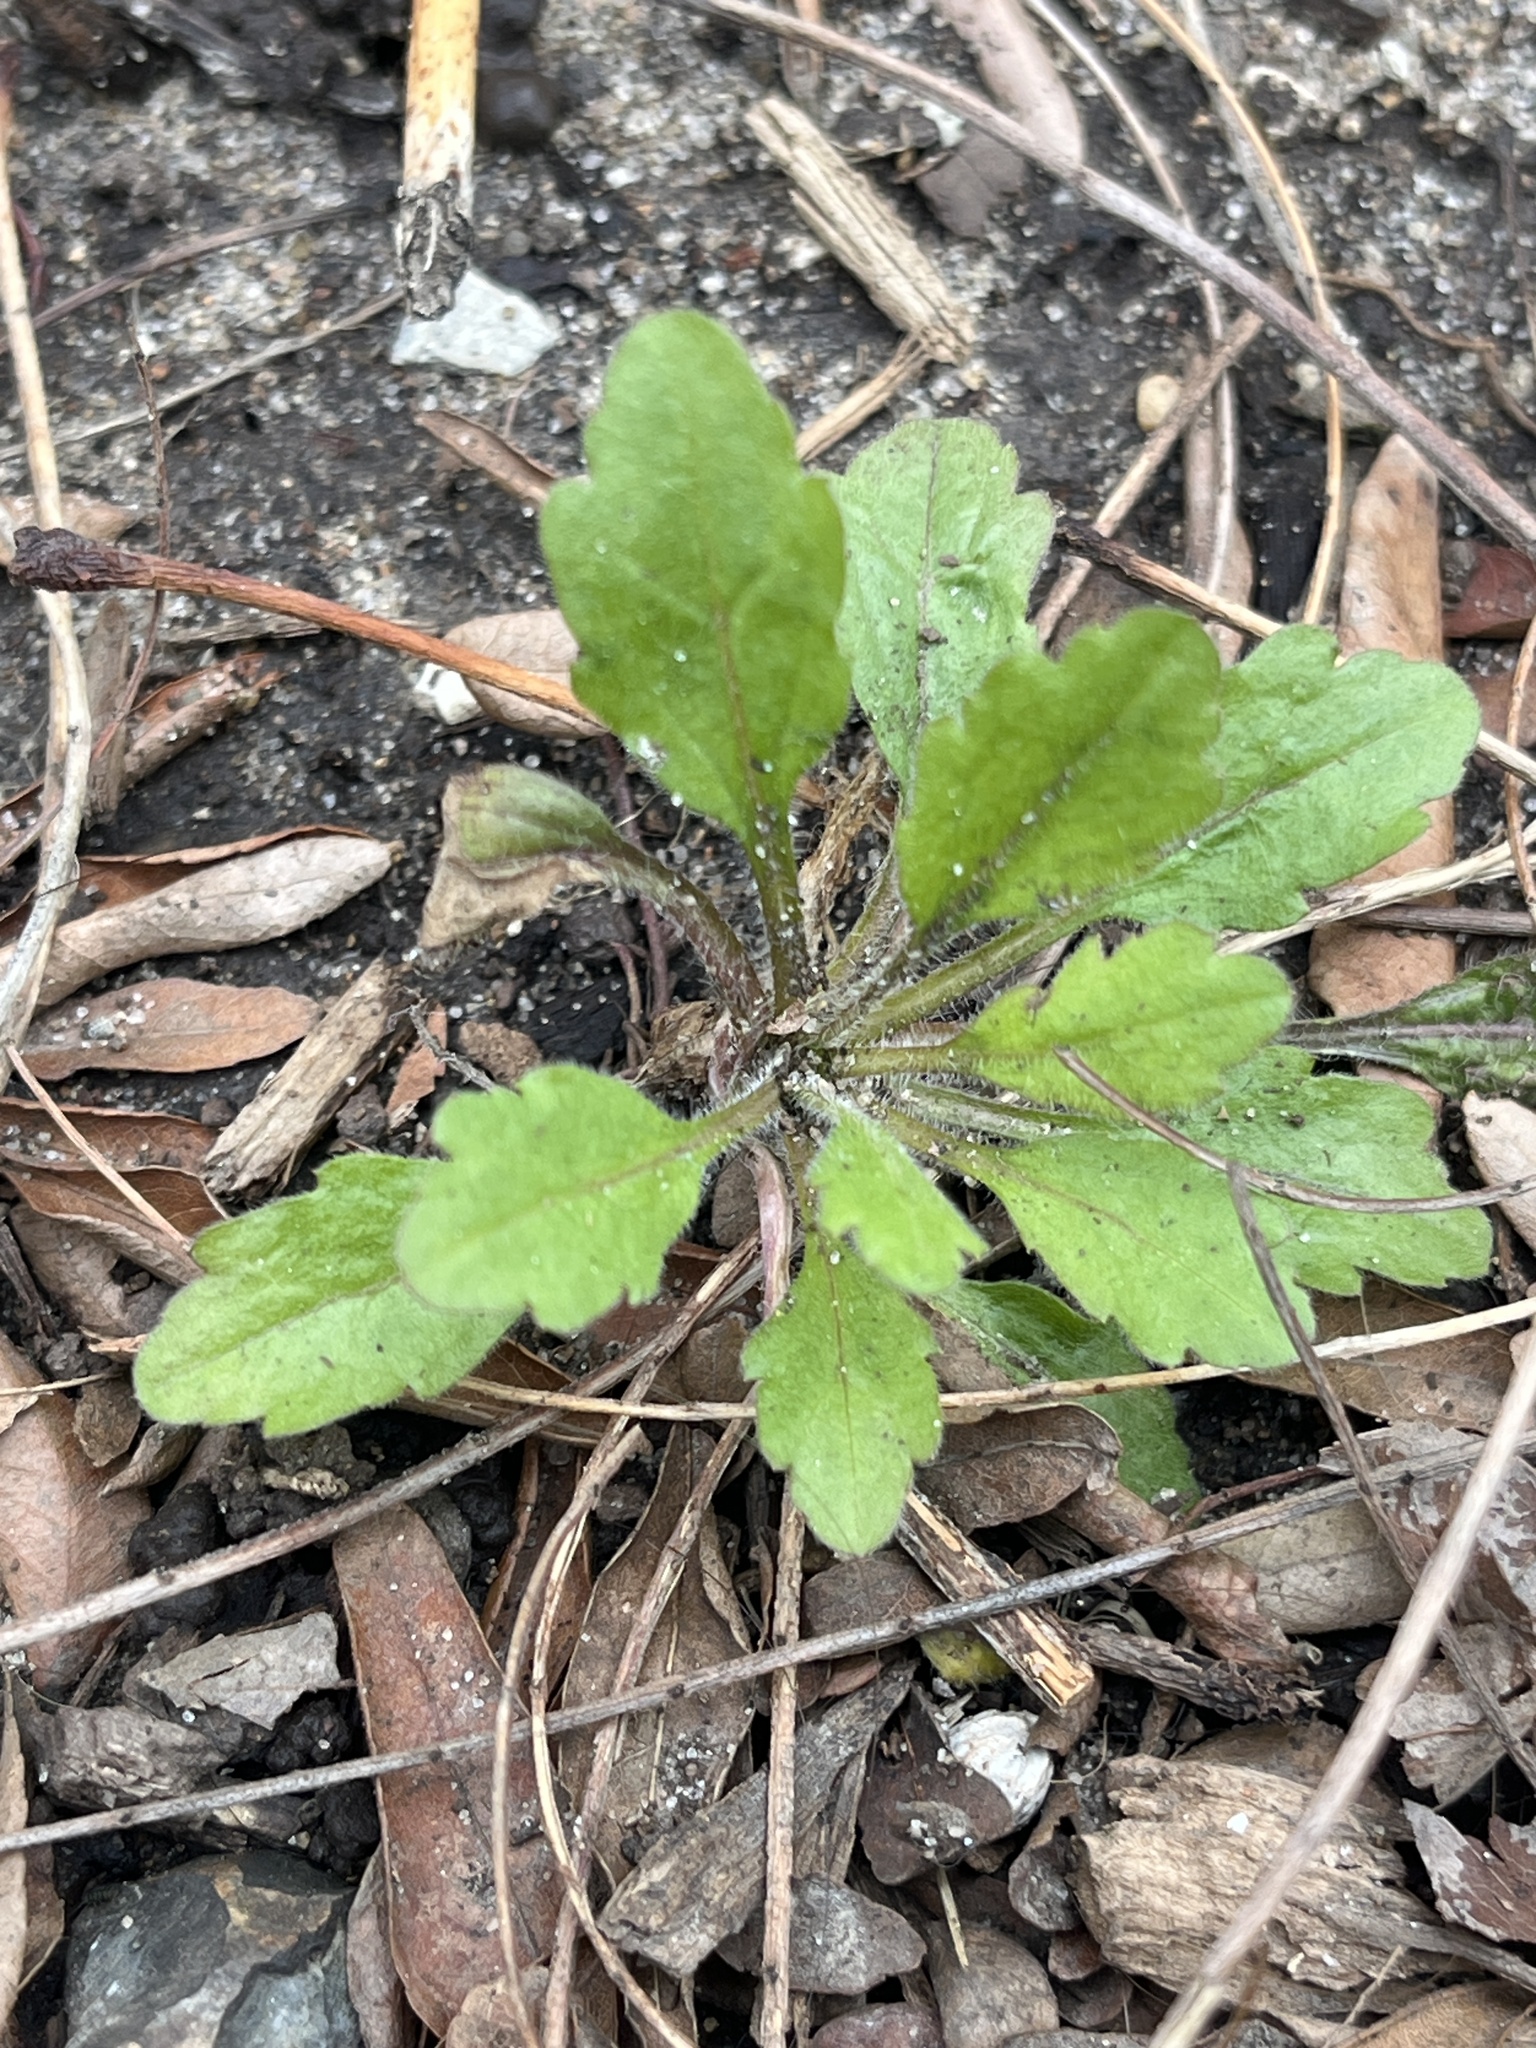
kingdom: Plantae
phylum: Tracheophyta
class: Magnoliopsida
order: Asterales
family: Asteraceae
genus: Erigeron
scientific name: Erigeron canadensis
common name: Canadian fleabane
